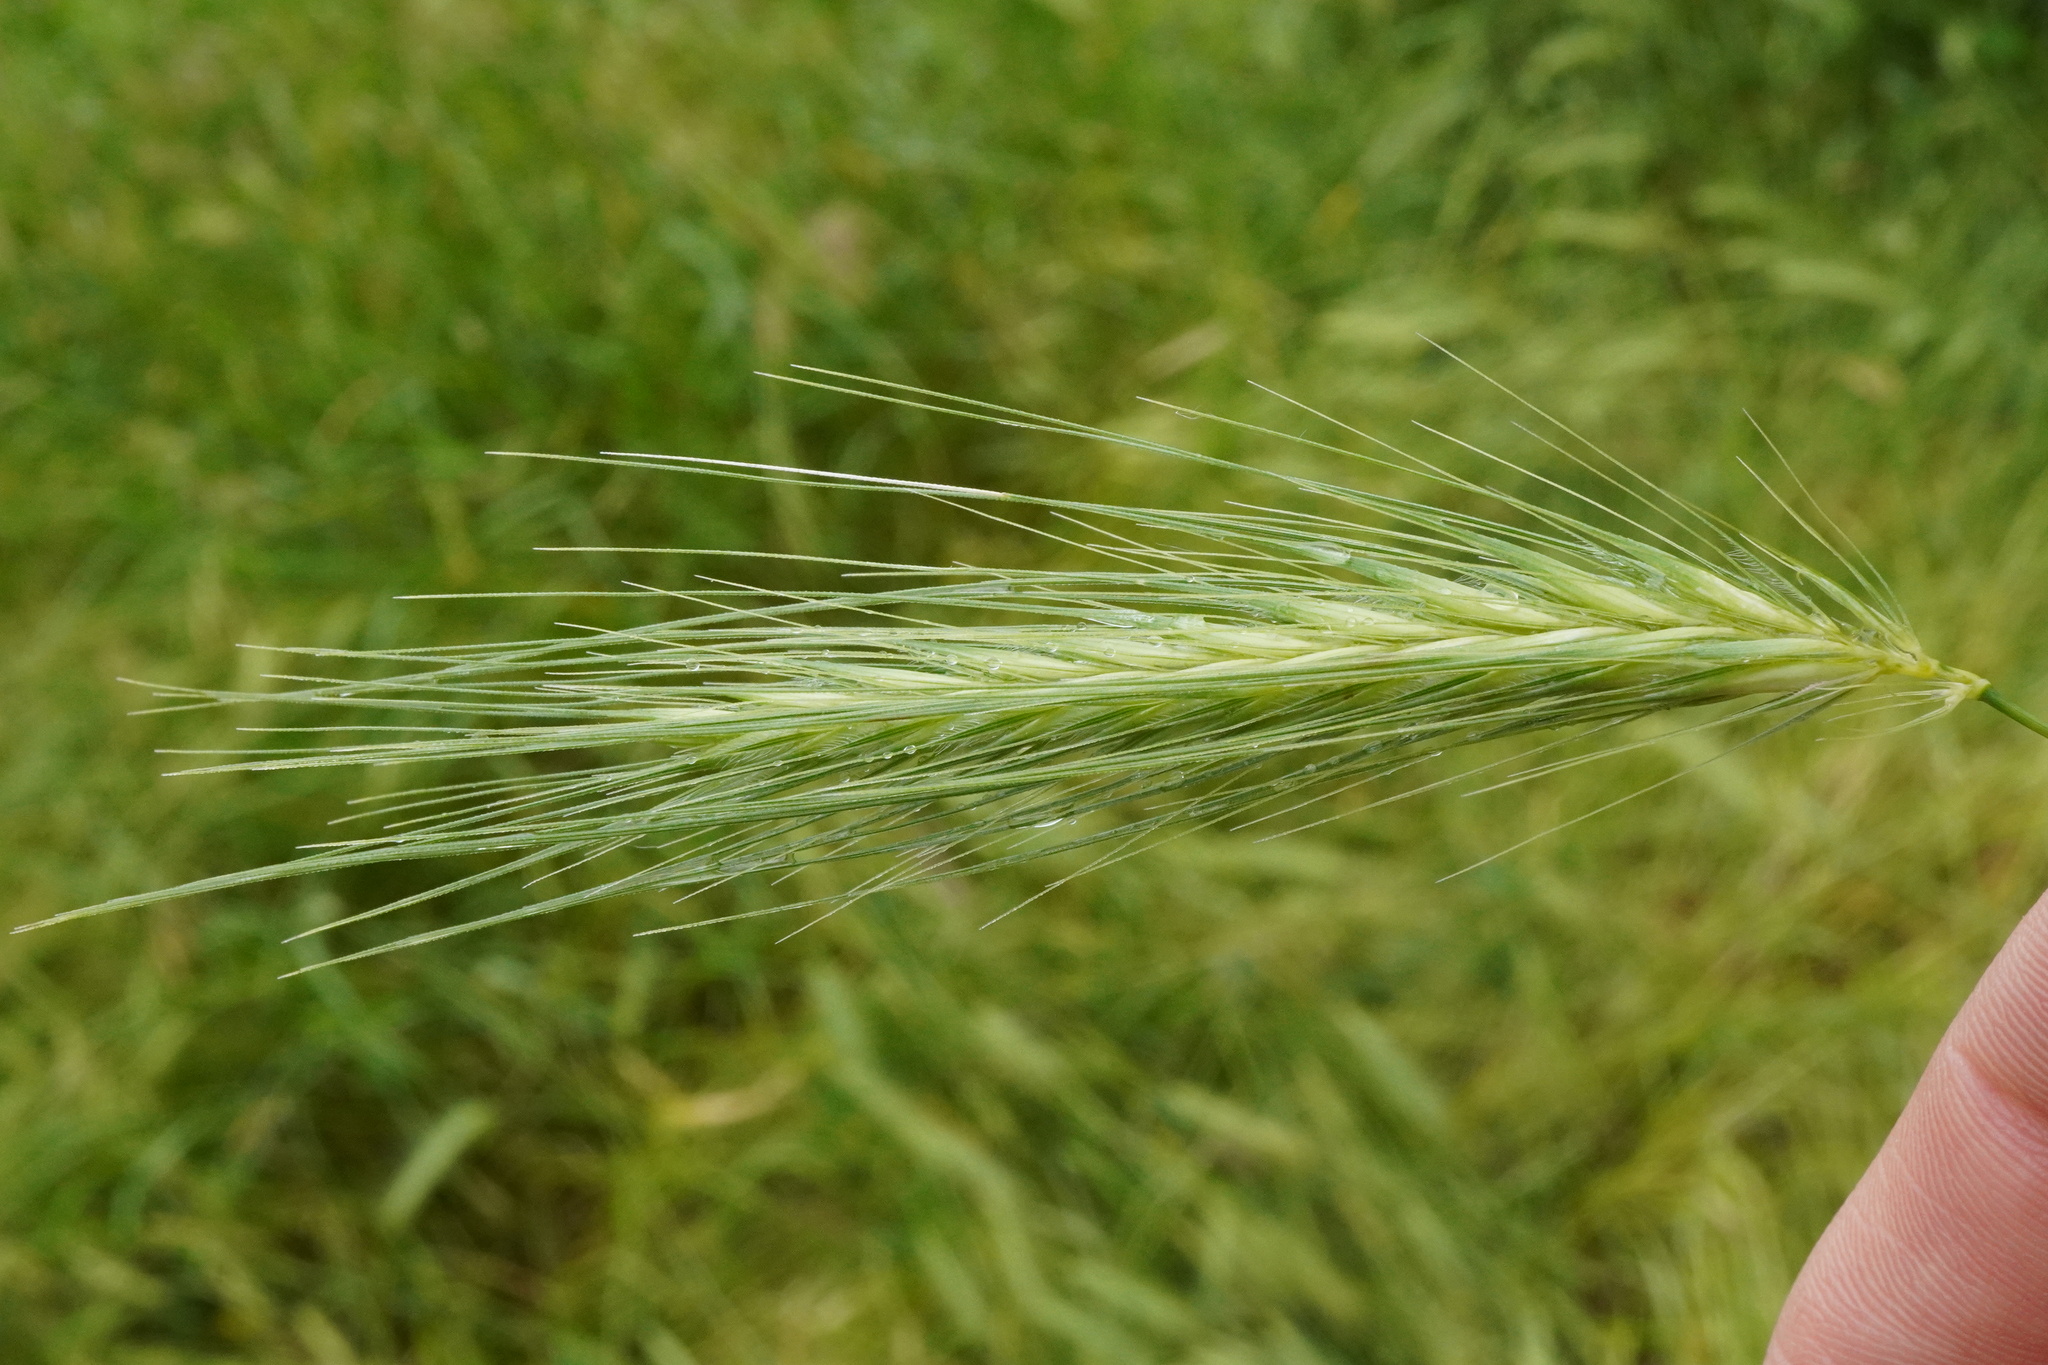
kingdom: Plantae
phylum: Tracheophyta
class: Liliopsida
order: Poales
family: Poaceae
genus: Hordeum
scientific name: Hordeum murinum
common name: Wall barley
